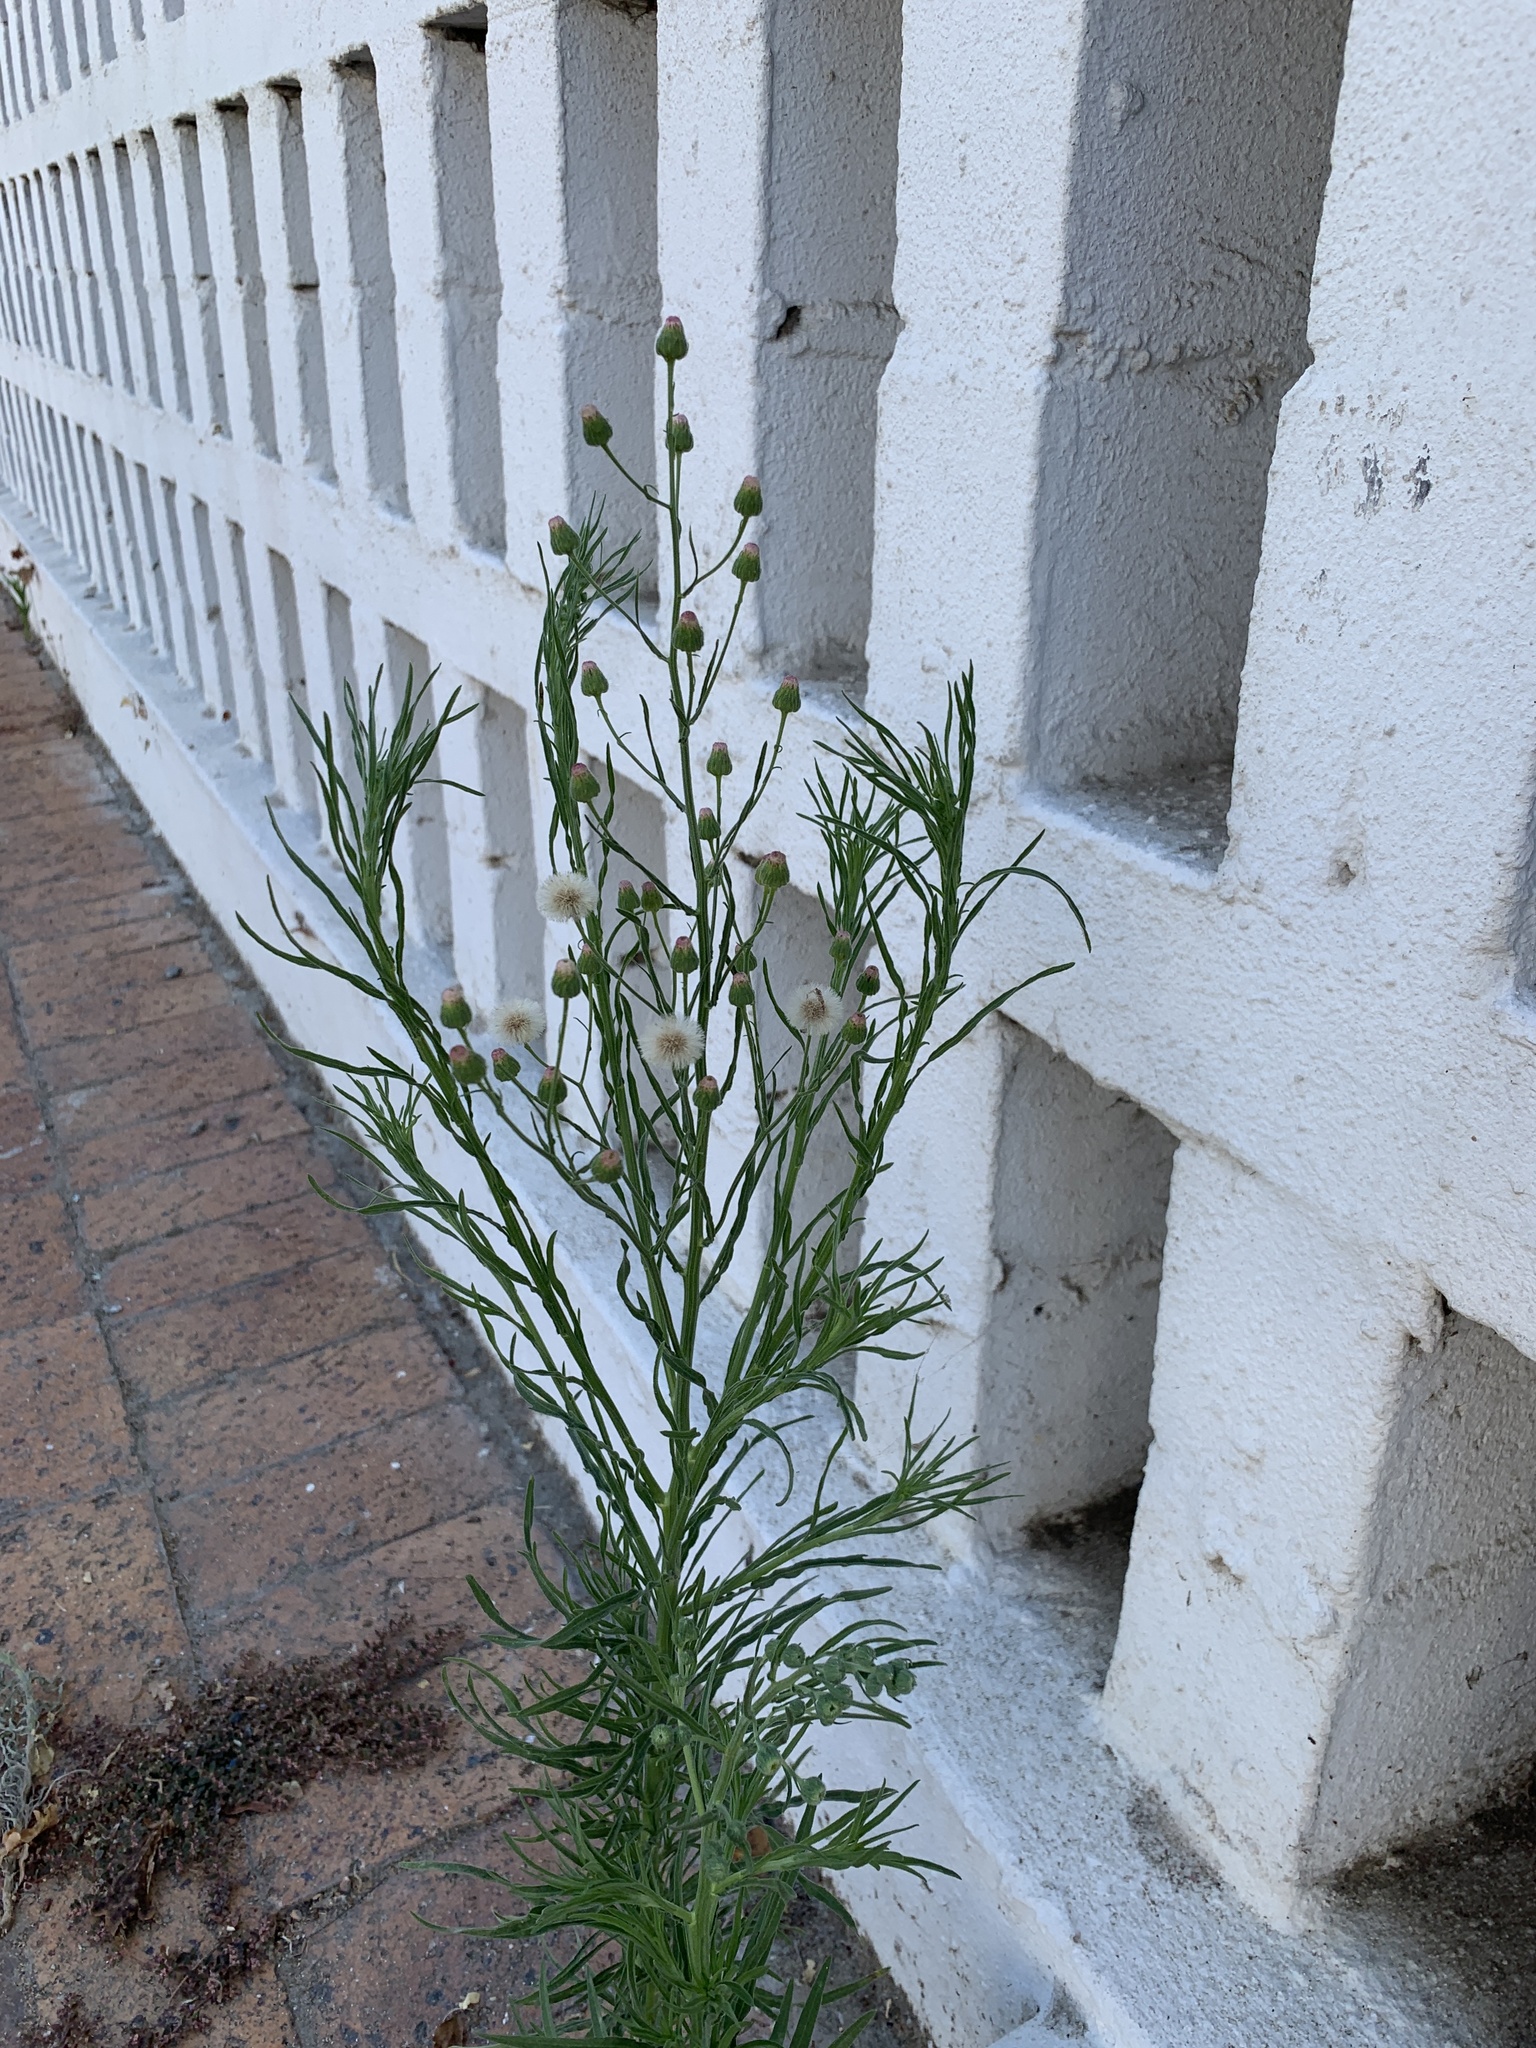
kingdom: Plantae
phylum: Tracheophyta
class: Magnoliopsida
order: Asterales
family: Asteraceae
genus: Erigeron
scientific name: Erigeron bonariensis
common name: Argentine fleabane
